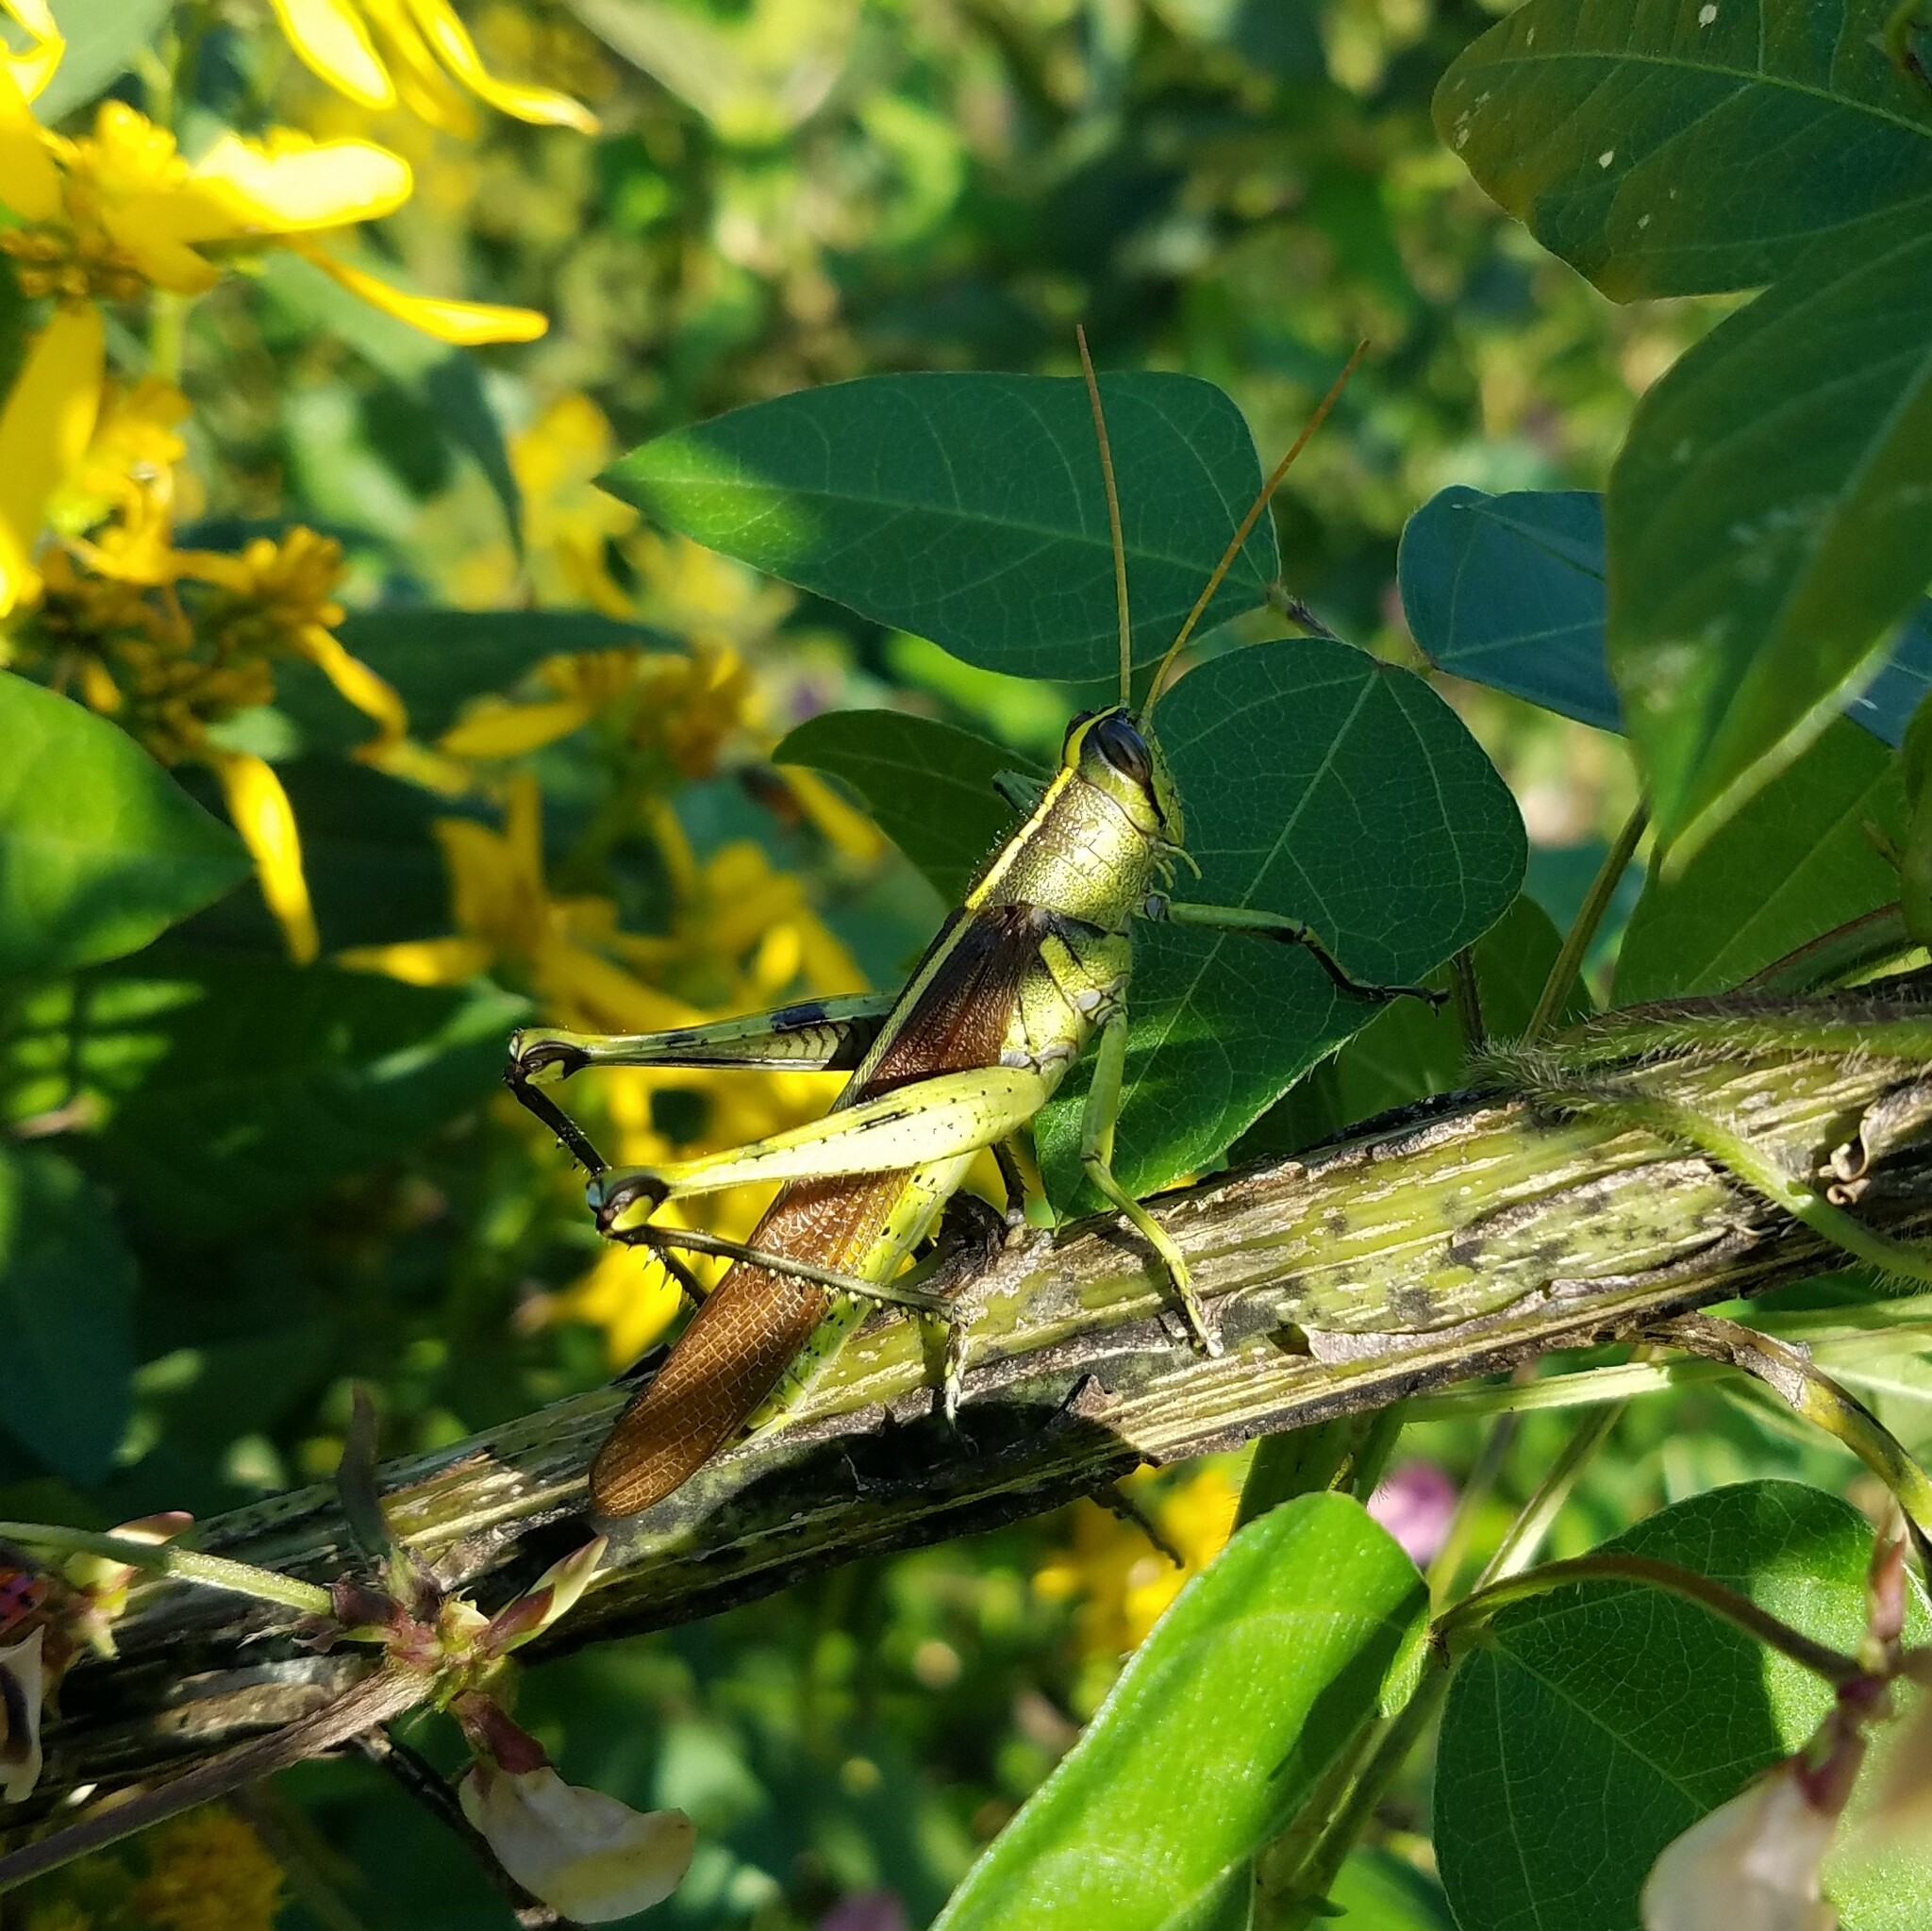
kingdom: Animalia
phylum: Arthropoda
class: Insecta
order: Orthoptera
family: Acrididae
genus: Schistocerca
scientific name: Schistocerca obscura
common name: Obscure bird grasshopper
